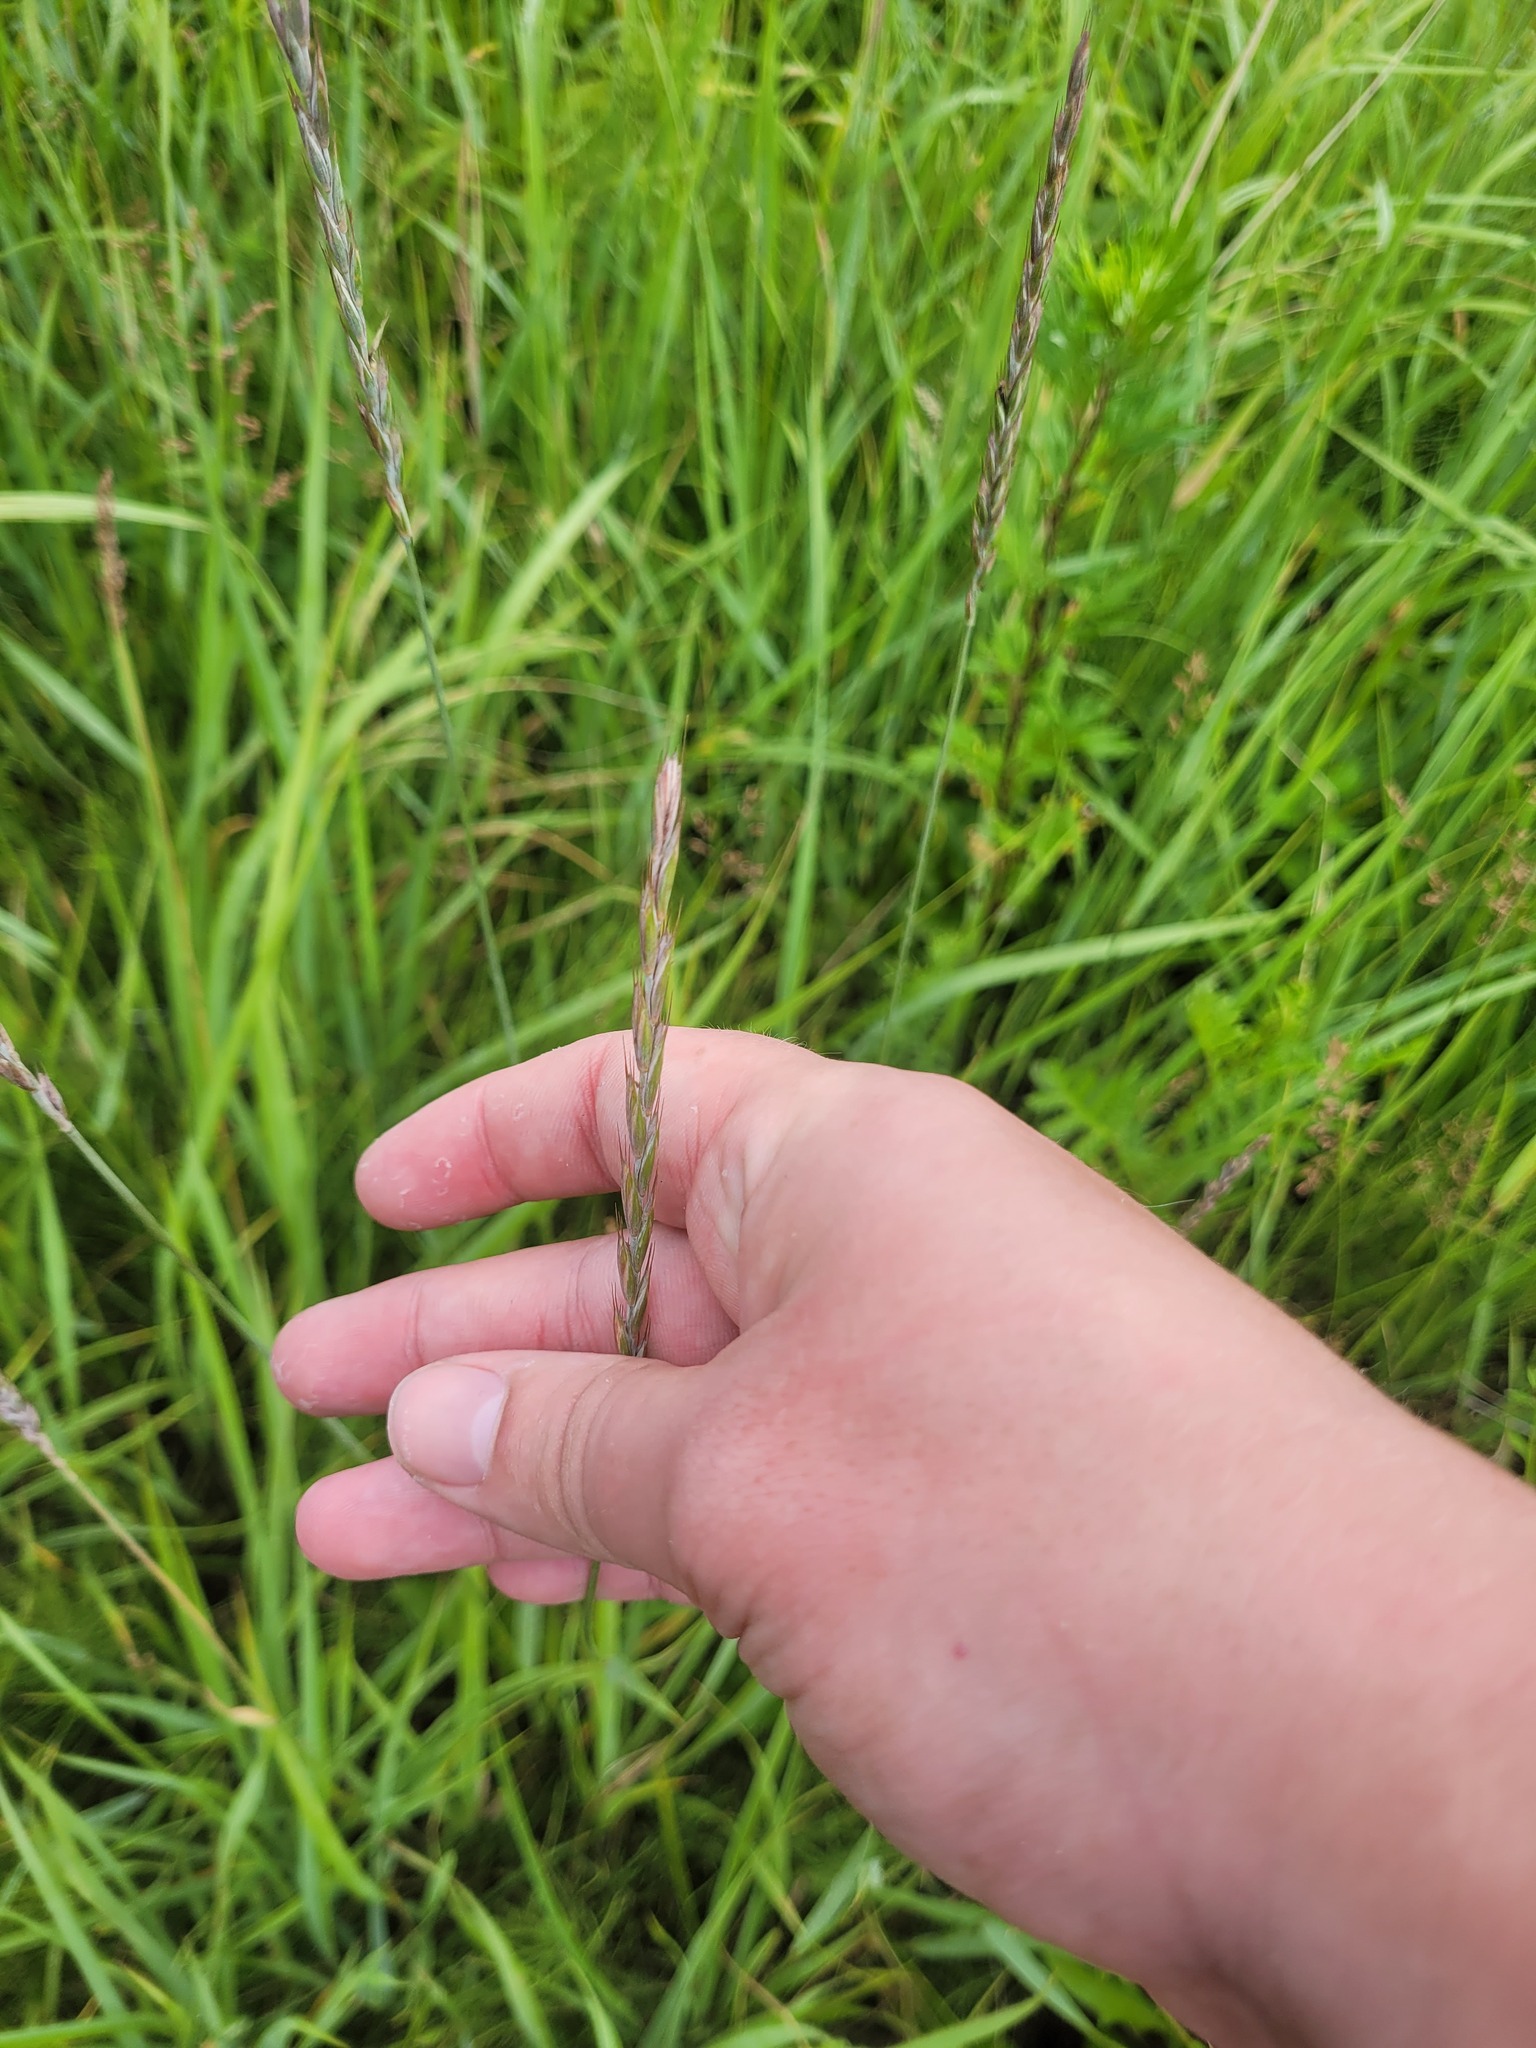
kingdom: Plantae
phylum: Tracheophyta
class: Liliopsida
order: Poales
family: Poaceae
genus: Elymus
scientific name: Elymus repens
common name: Quackgrass
